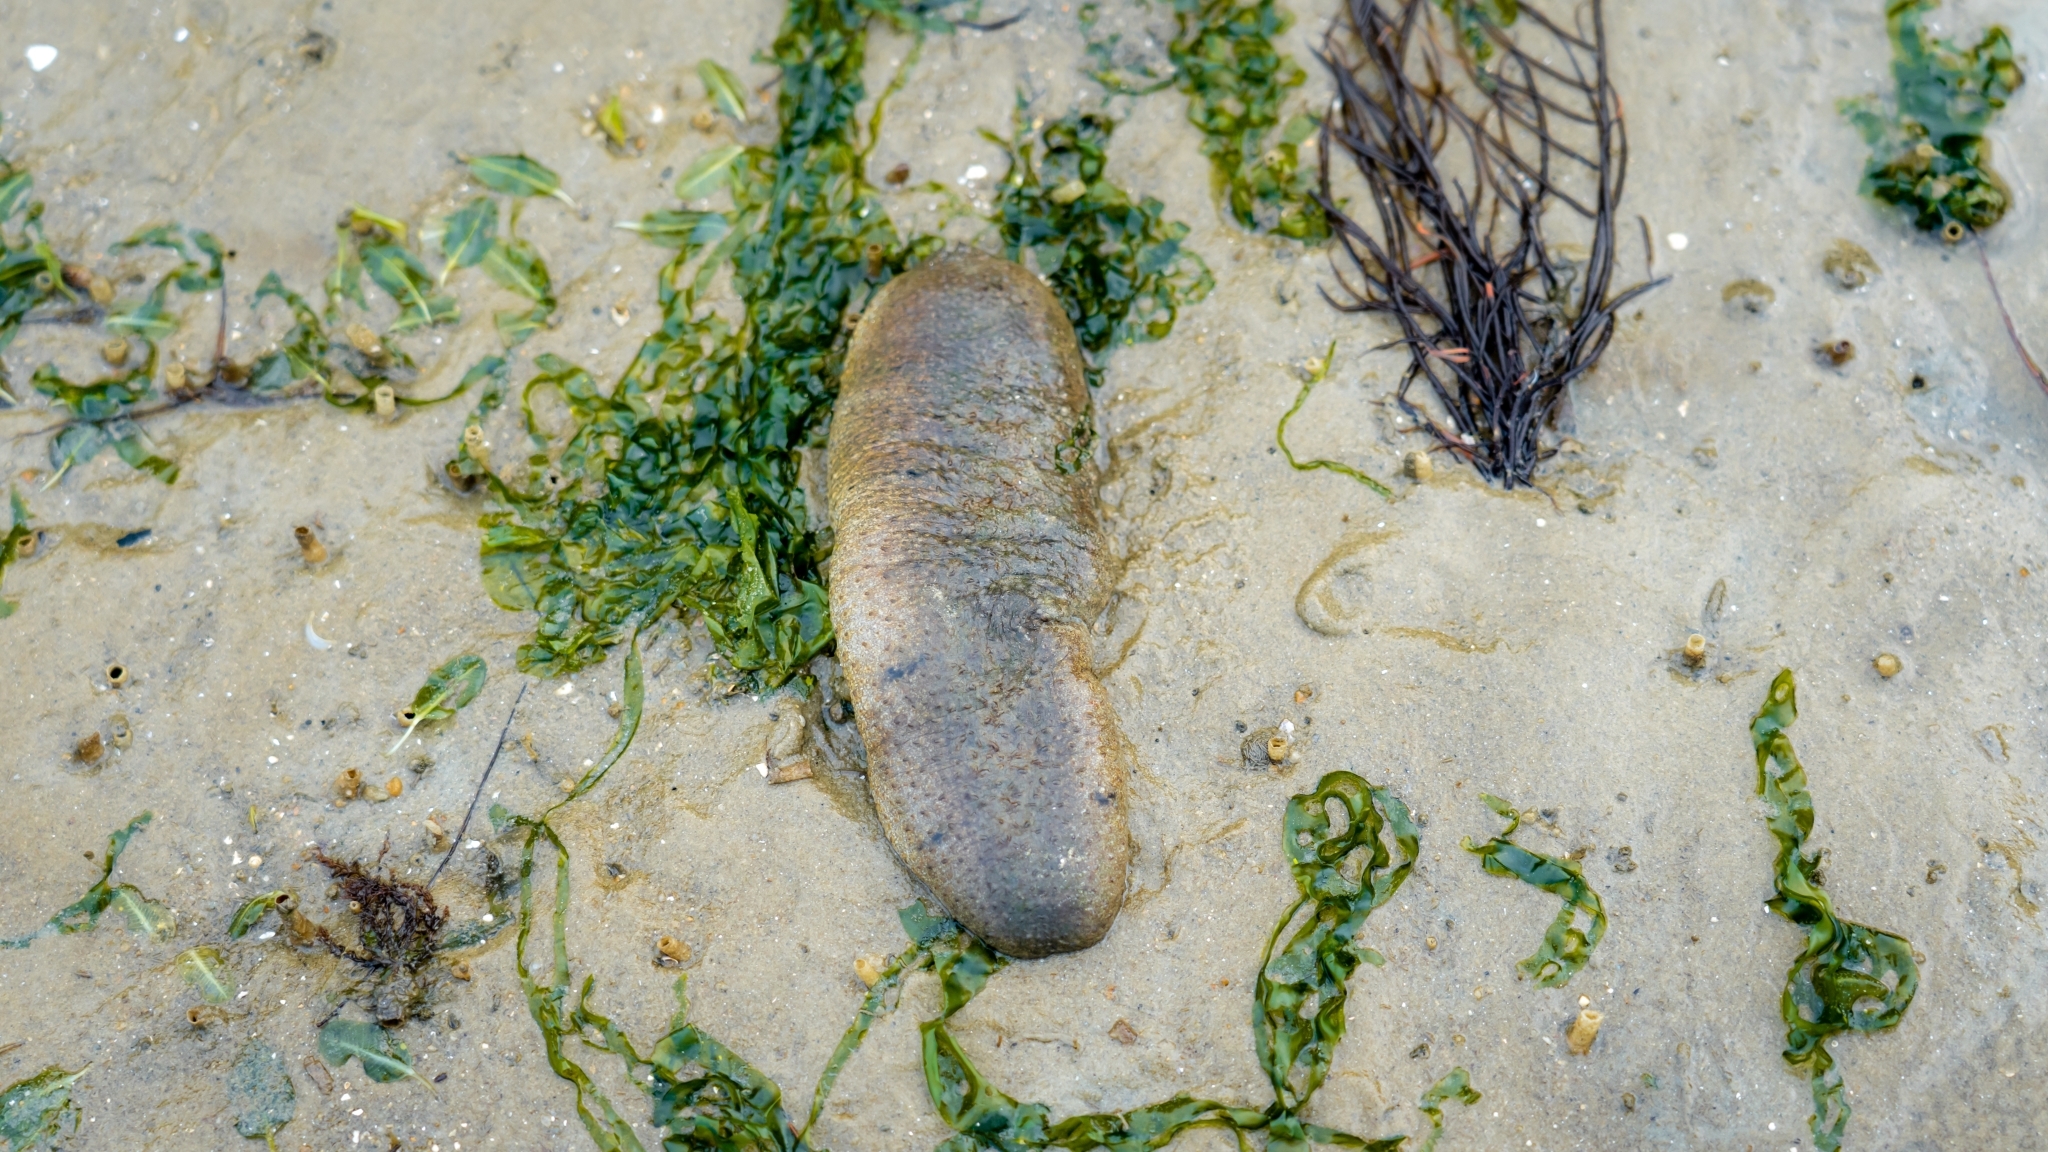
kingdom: Animalia
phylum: Echinodermata
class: Holothuroidea
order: Holothuriida
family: Holothuriidae
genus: Holothuria
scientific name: Holothuria scabra
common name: Golden sandfish
